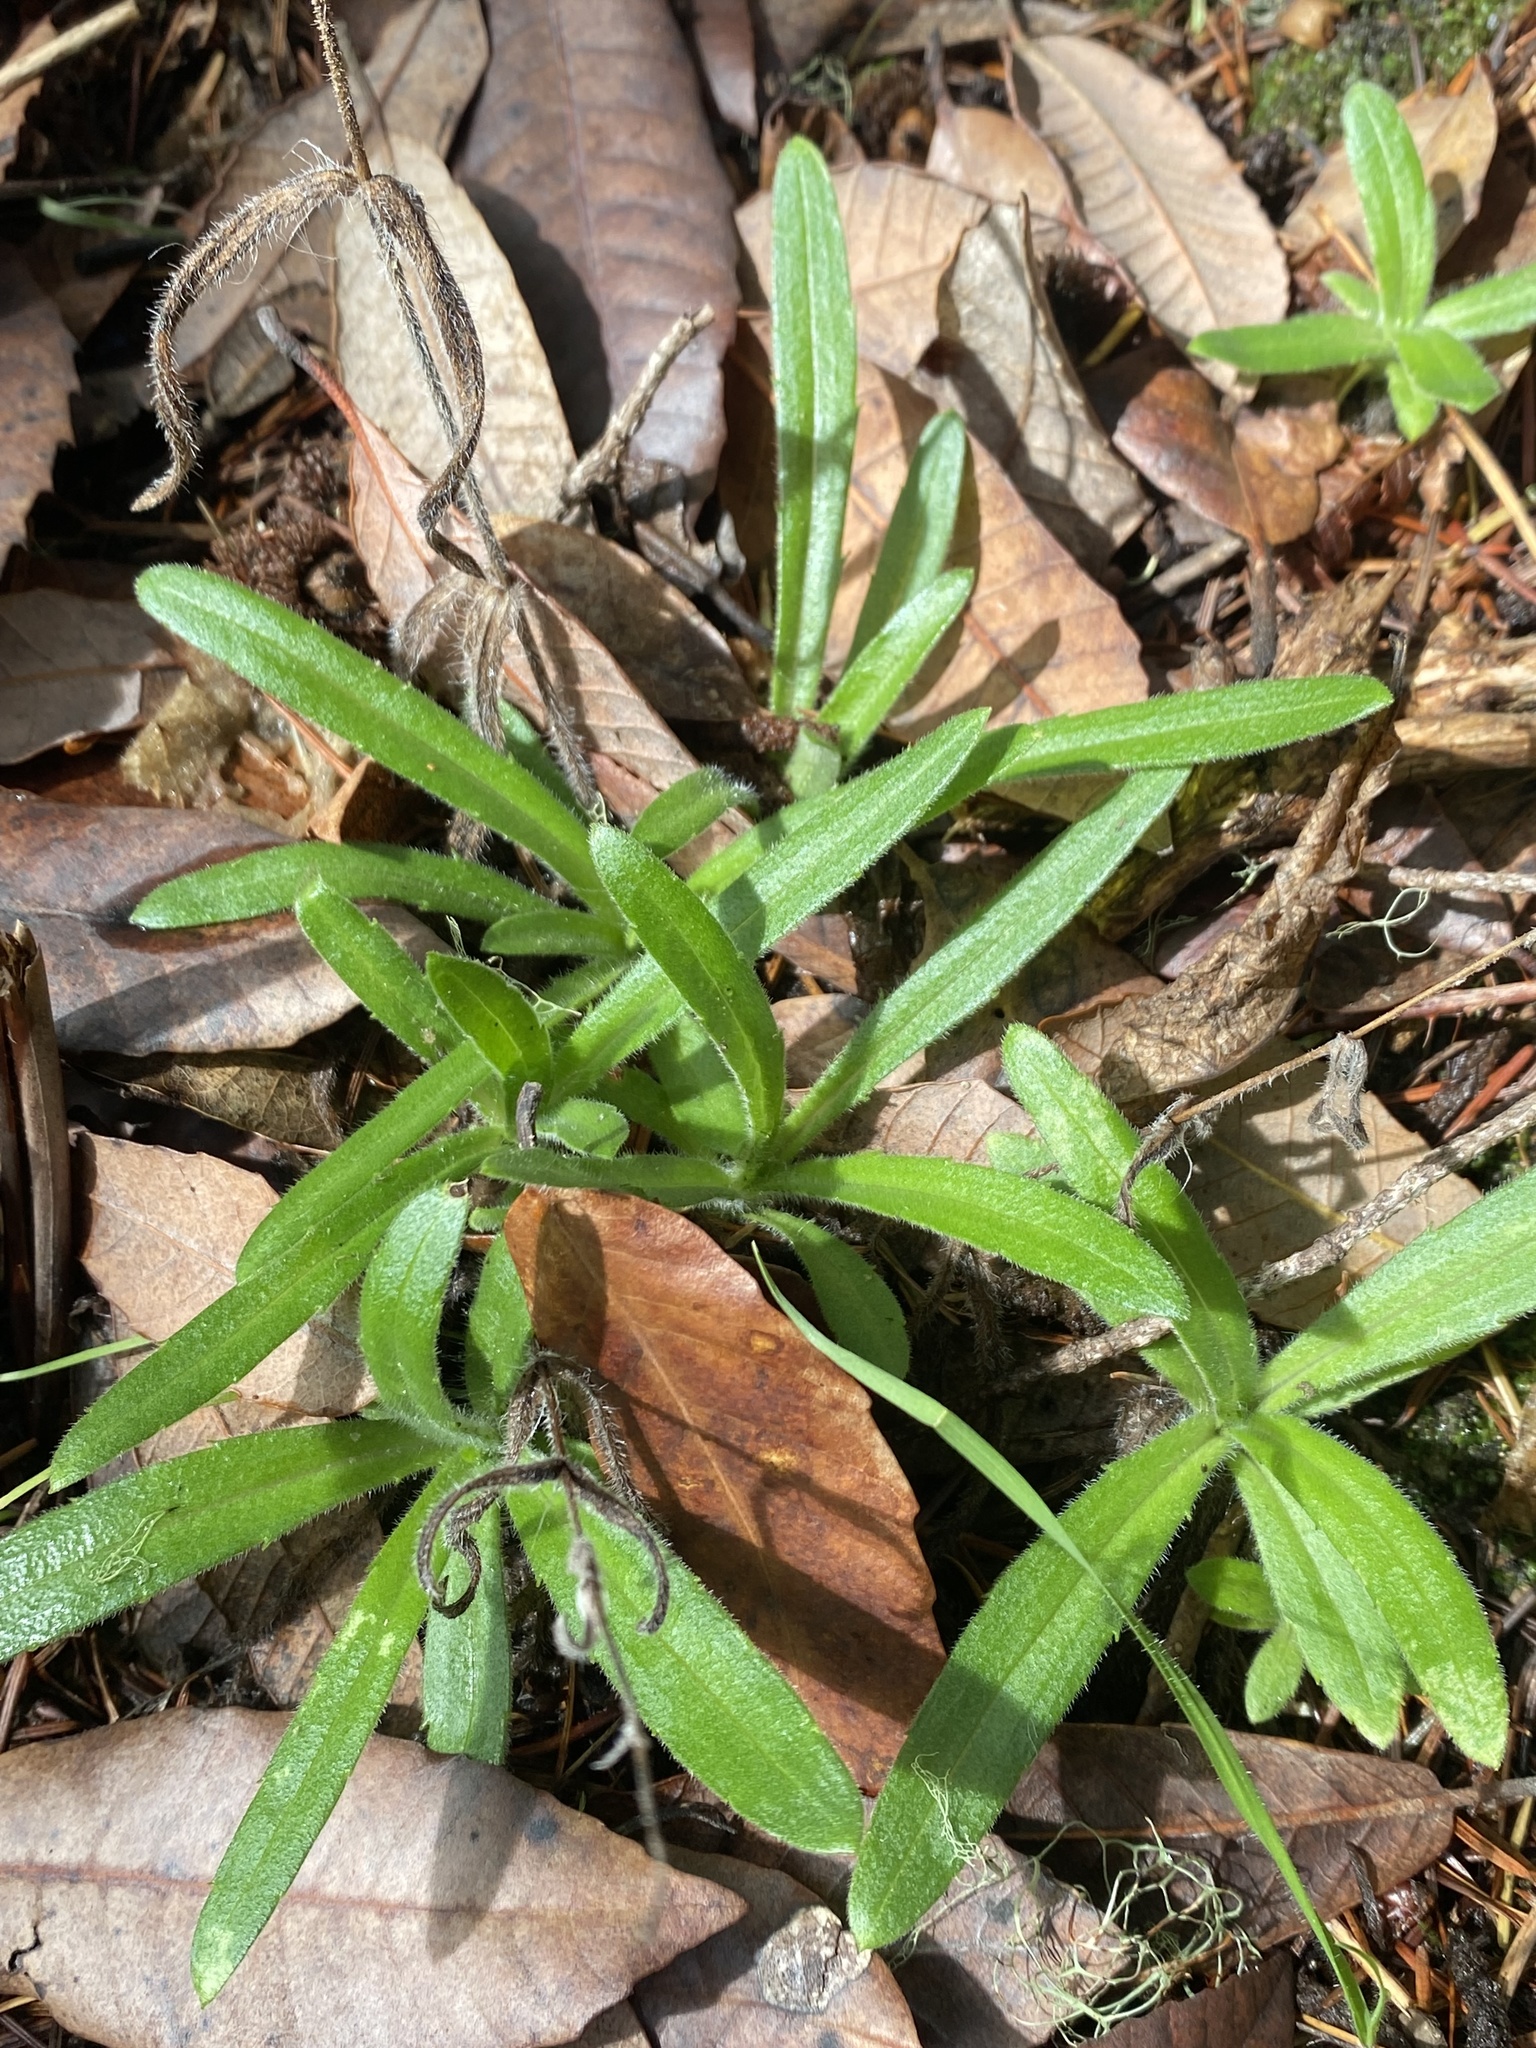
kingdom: Plantae
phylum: Tracheophyta
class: Magnoliopsida
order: Asterales
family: Asteraceae
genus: Anisocarpus
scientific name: Anisocarpus madioides
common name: Woodland madia
